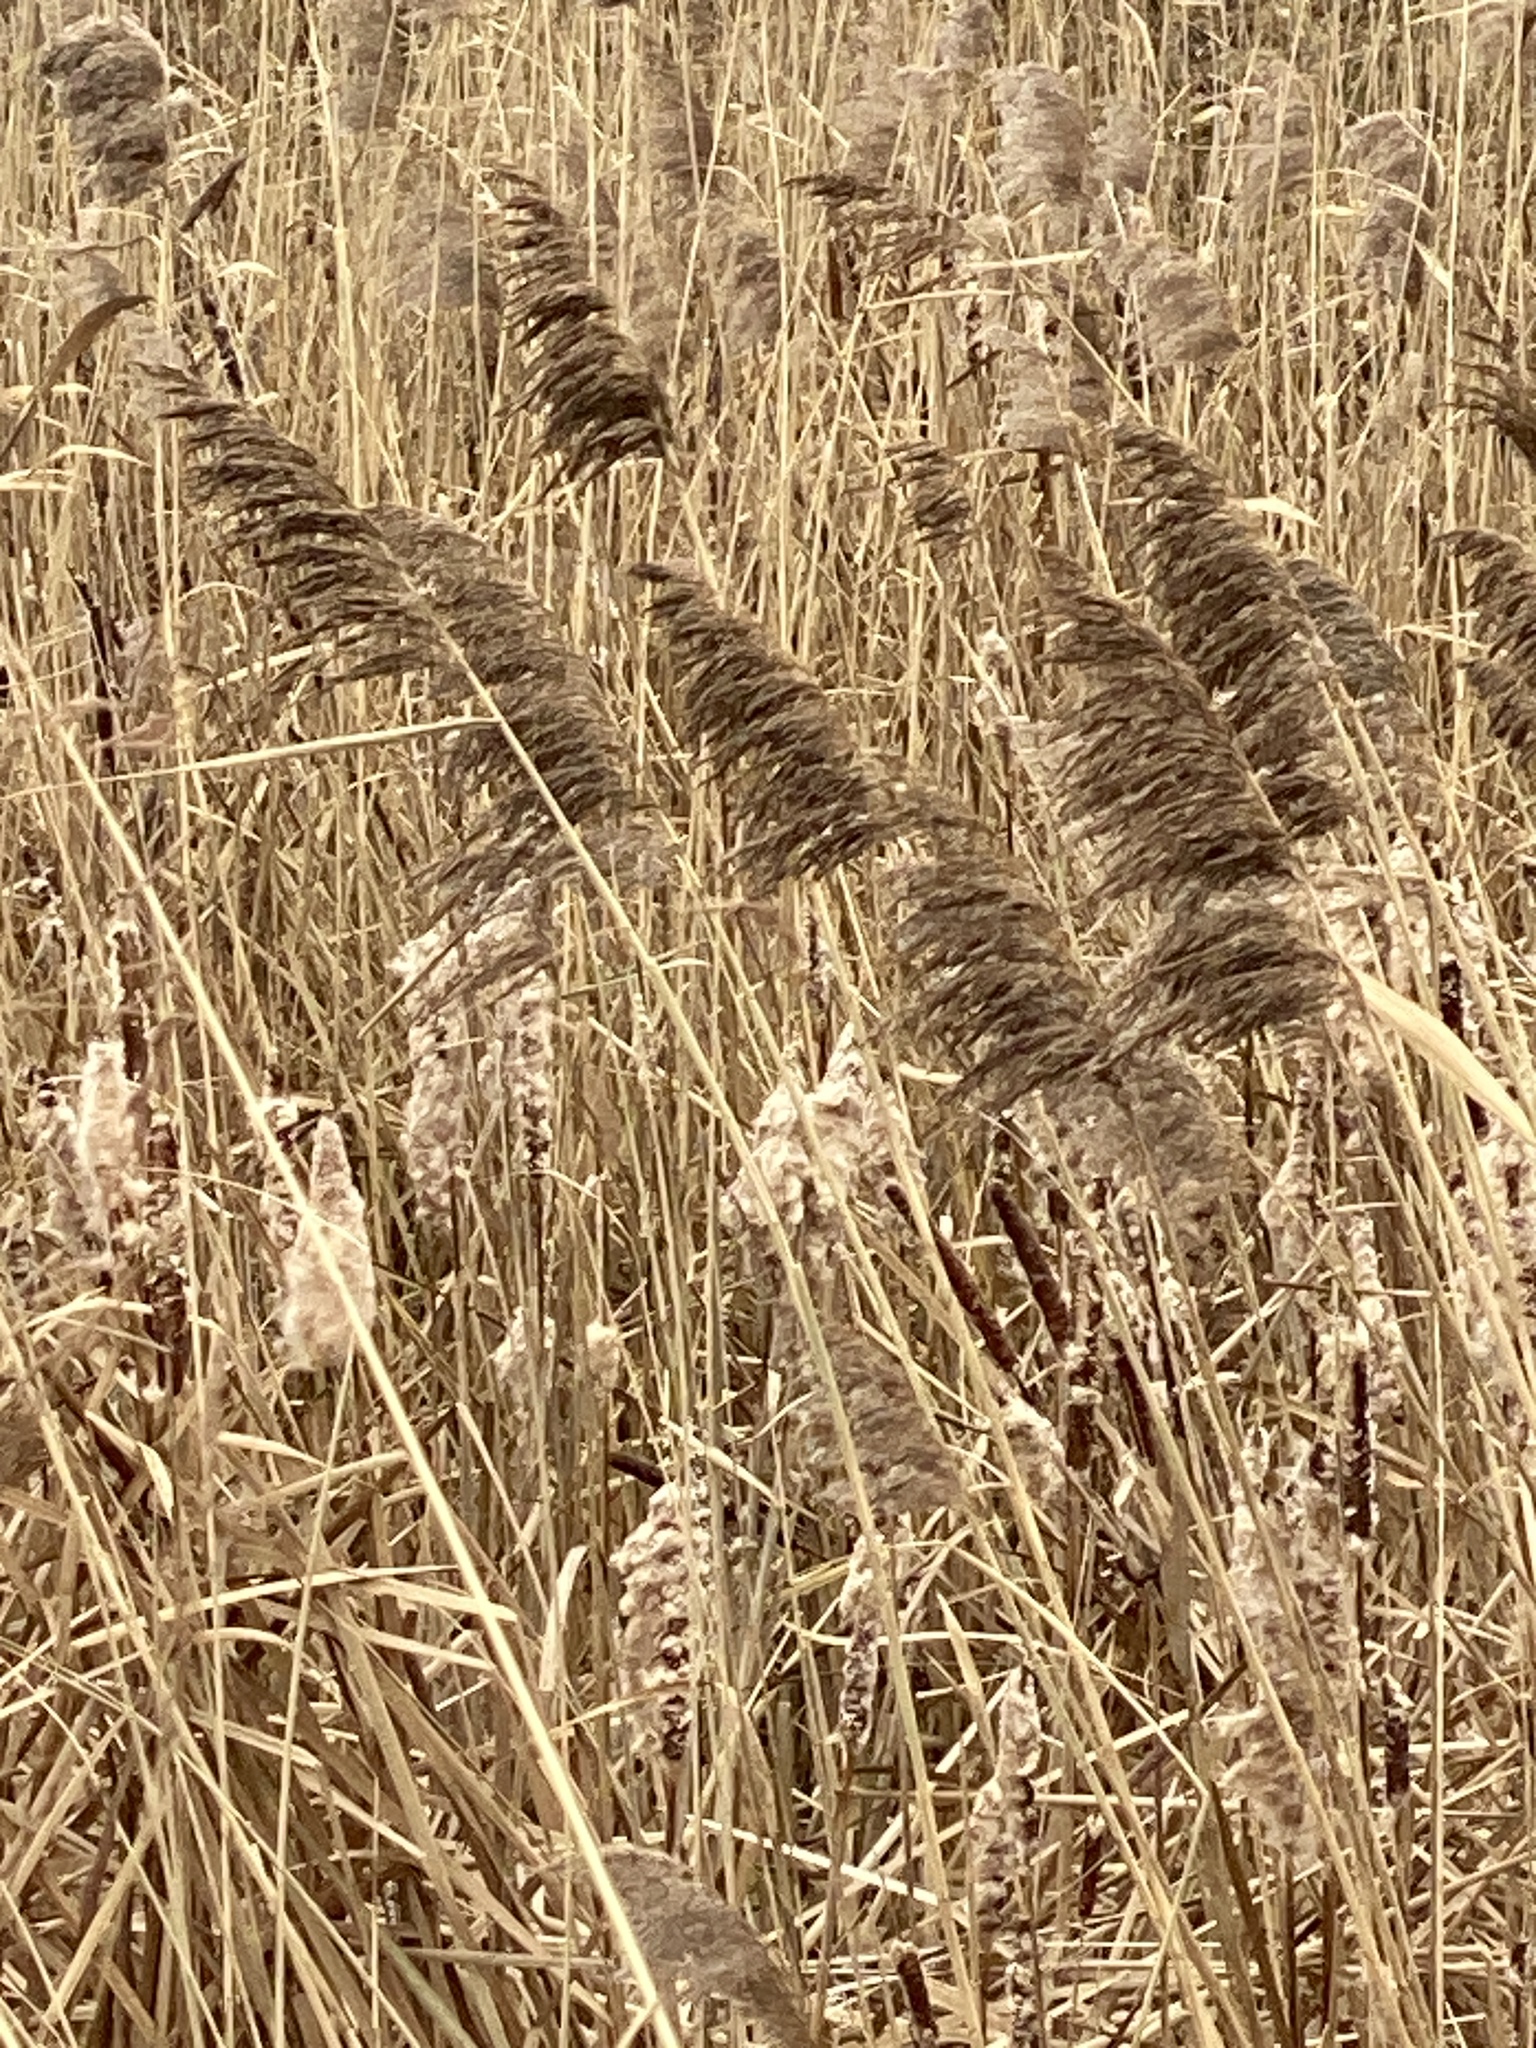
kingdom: Plantae
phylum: Tracheophyta
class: Liliopsida
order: Poales
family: Poaceae
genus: Phragmites
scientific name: Phragmites australis
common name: Common reed
